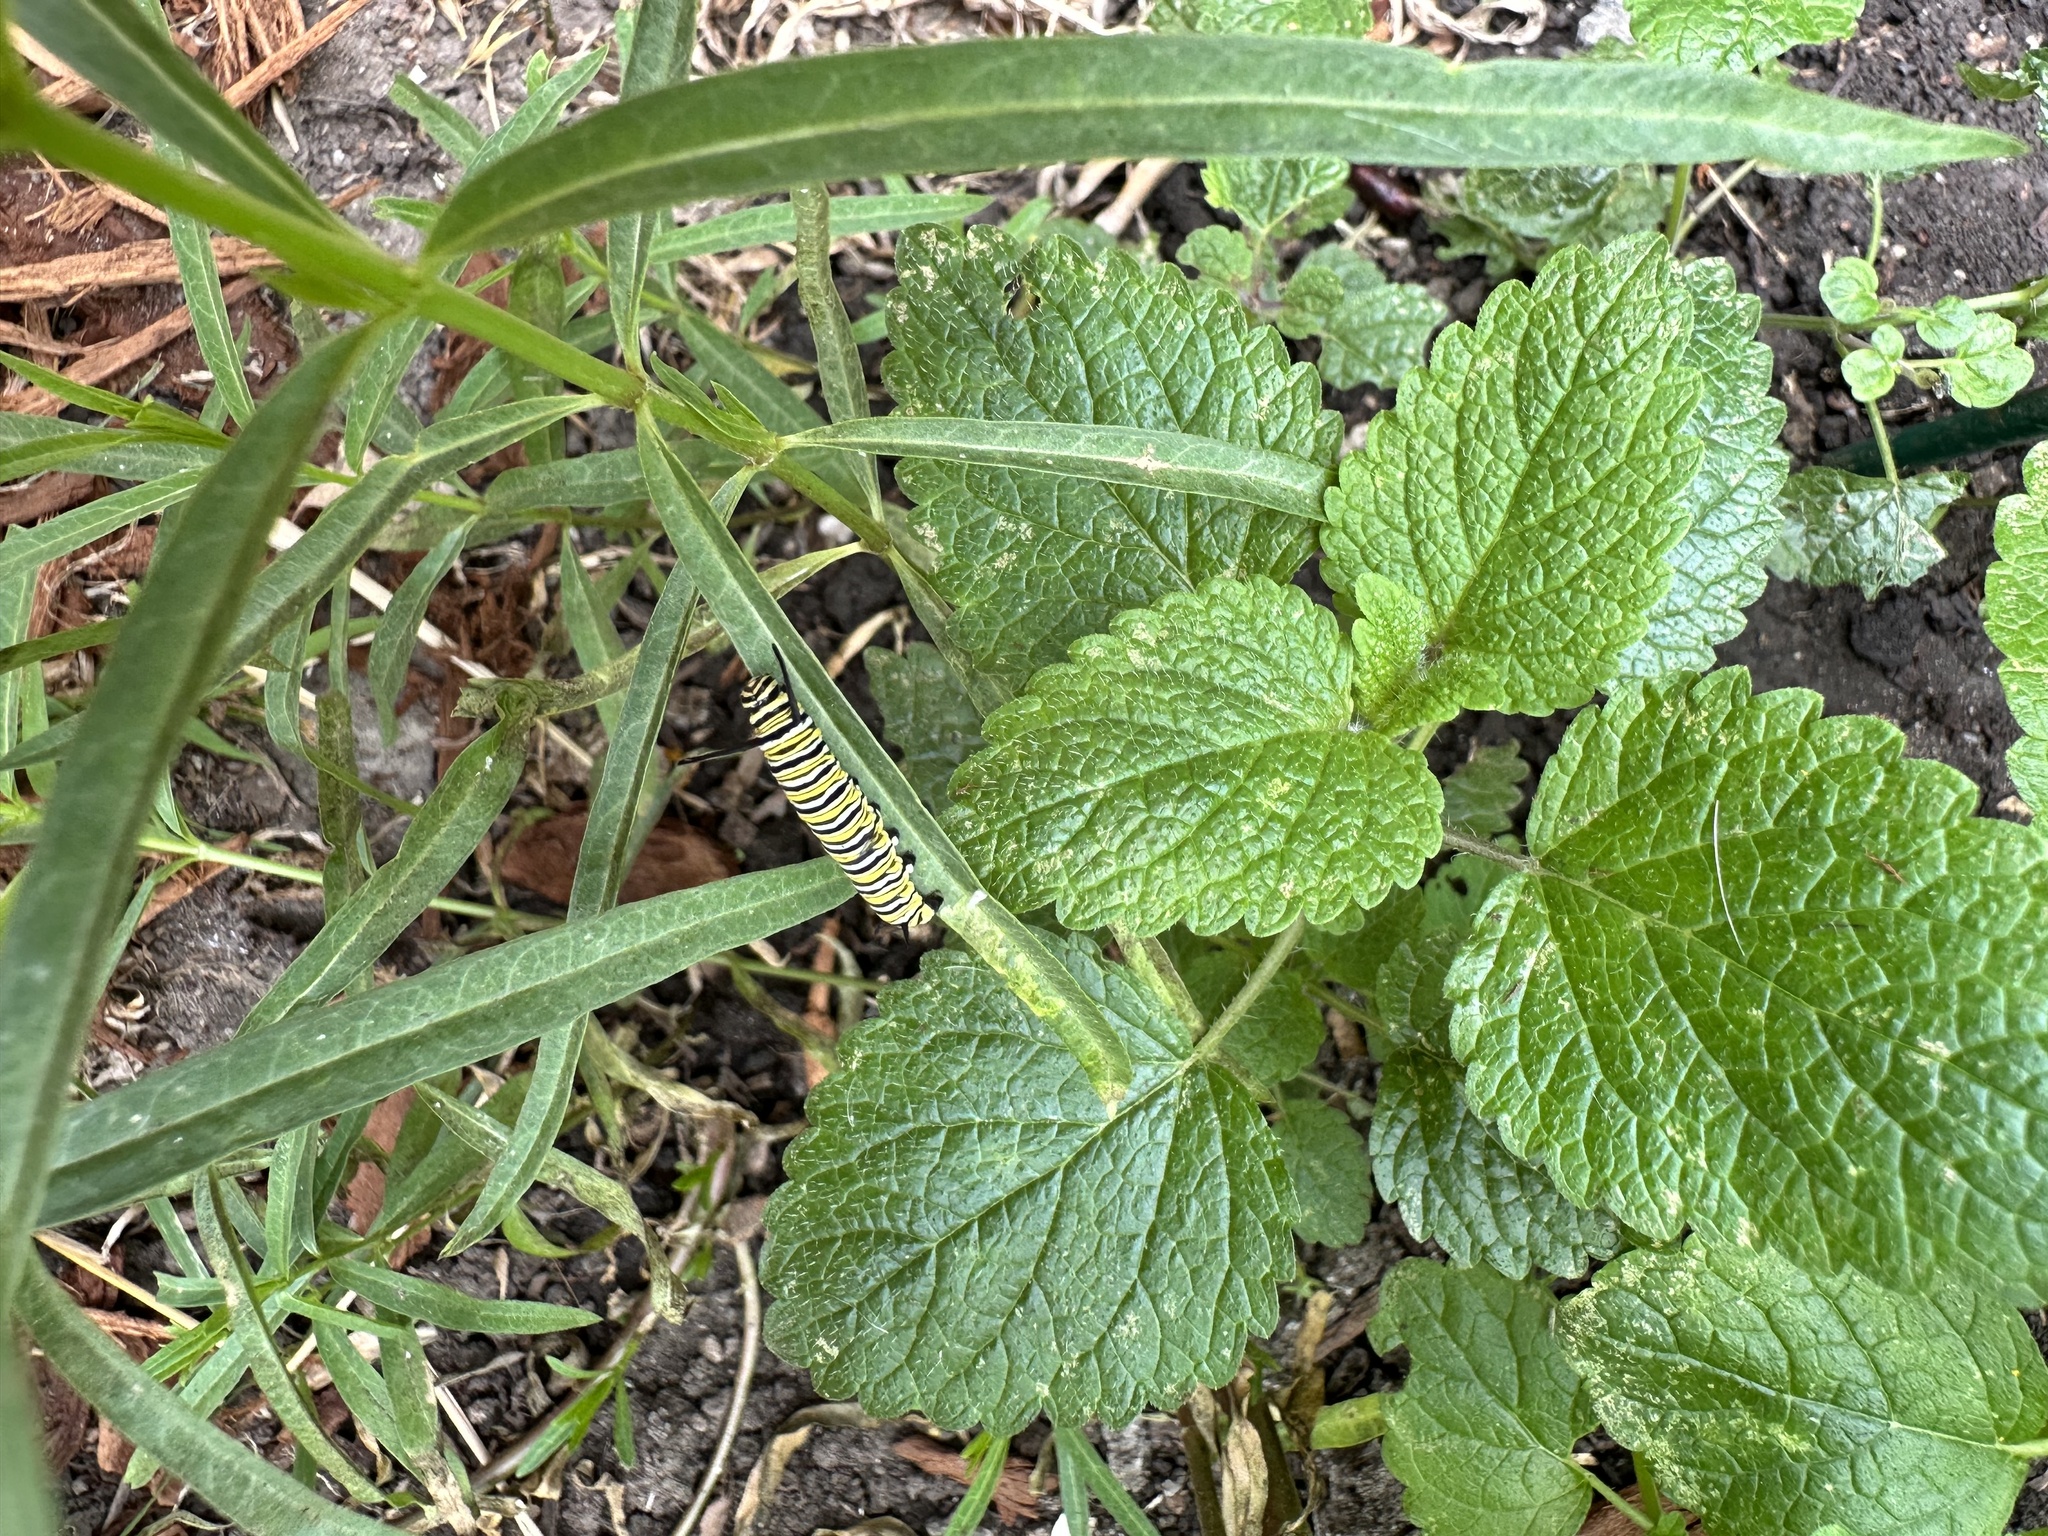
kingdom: Animalia
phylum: Arthropoda
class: Insecta
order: Lepidoptera
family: Nymphalidae
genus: Danaus
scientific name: Danaus plexippus
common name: Monarch
